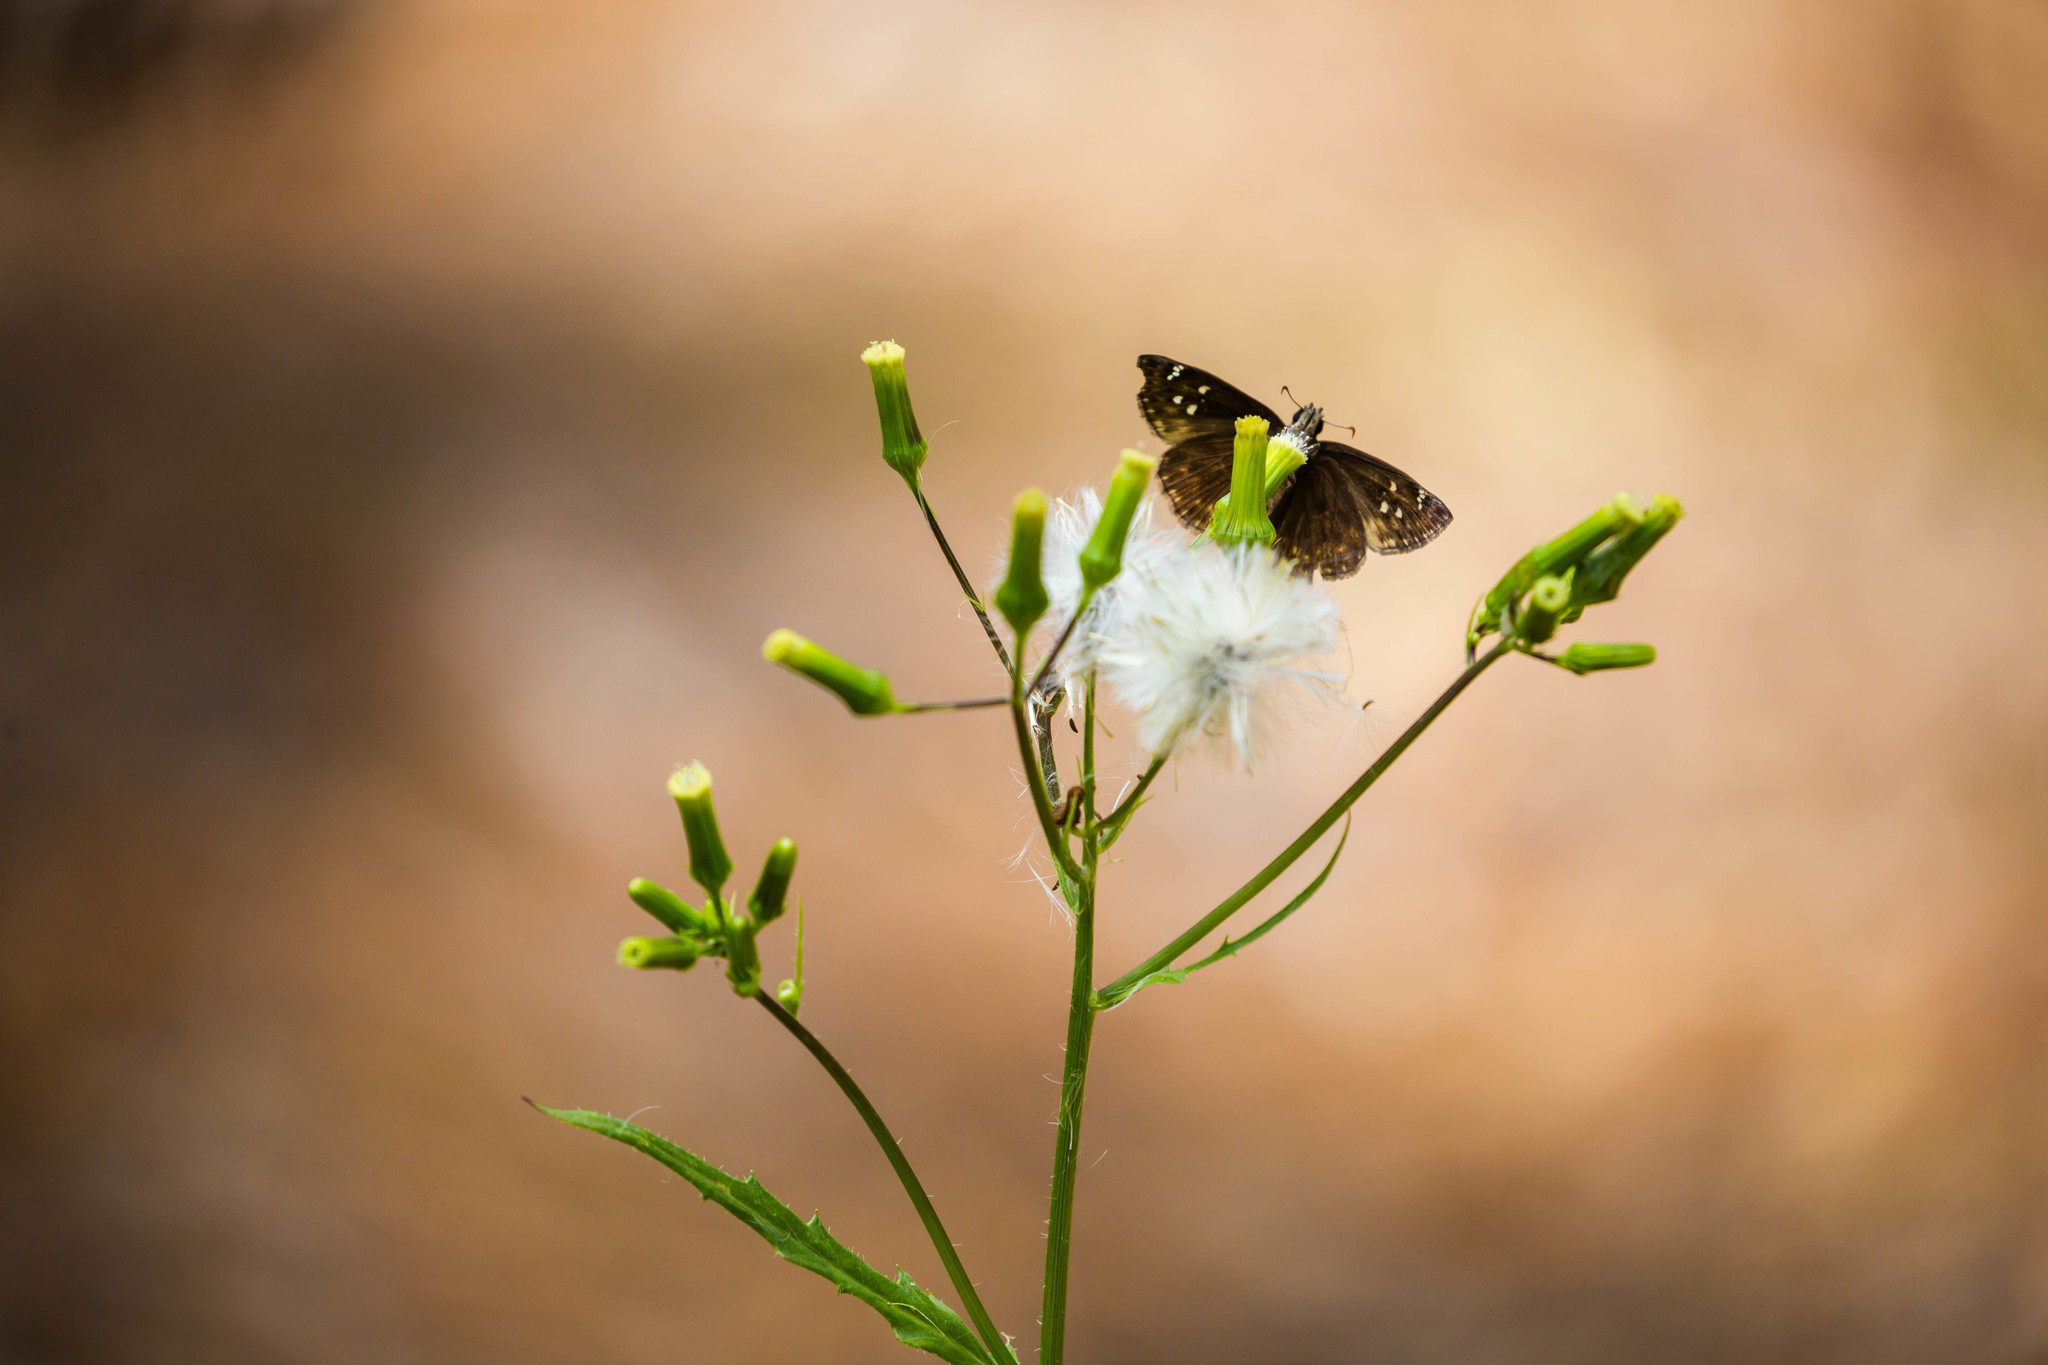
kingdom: Animalia
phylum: Arthropoda
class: Insecta
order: Lepidoptera
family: Hesperiidae
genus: Erynnis
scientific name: Erynnis horatius
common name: Horace's duskywing
